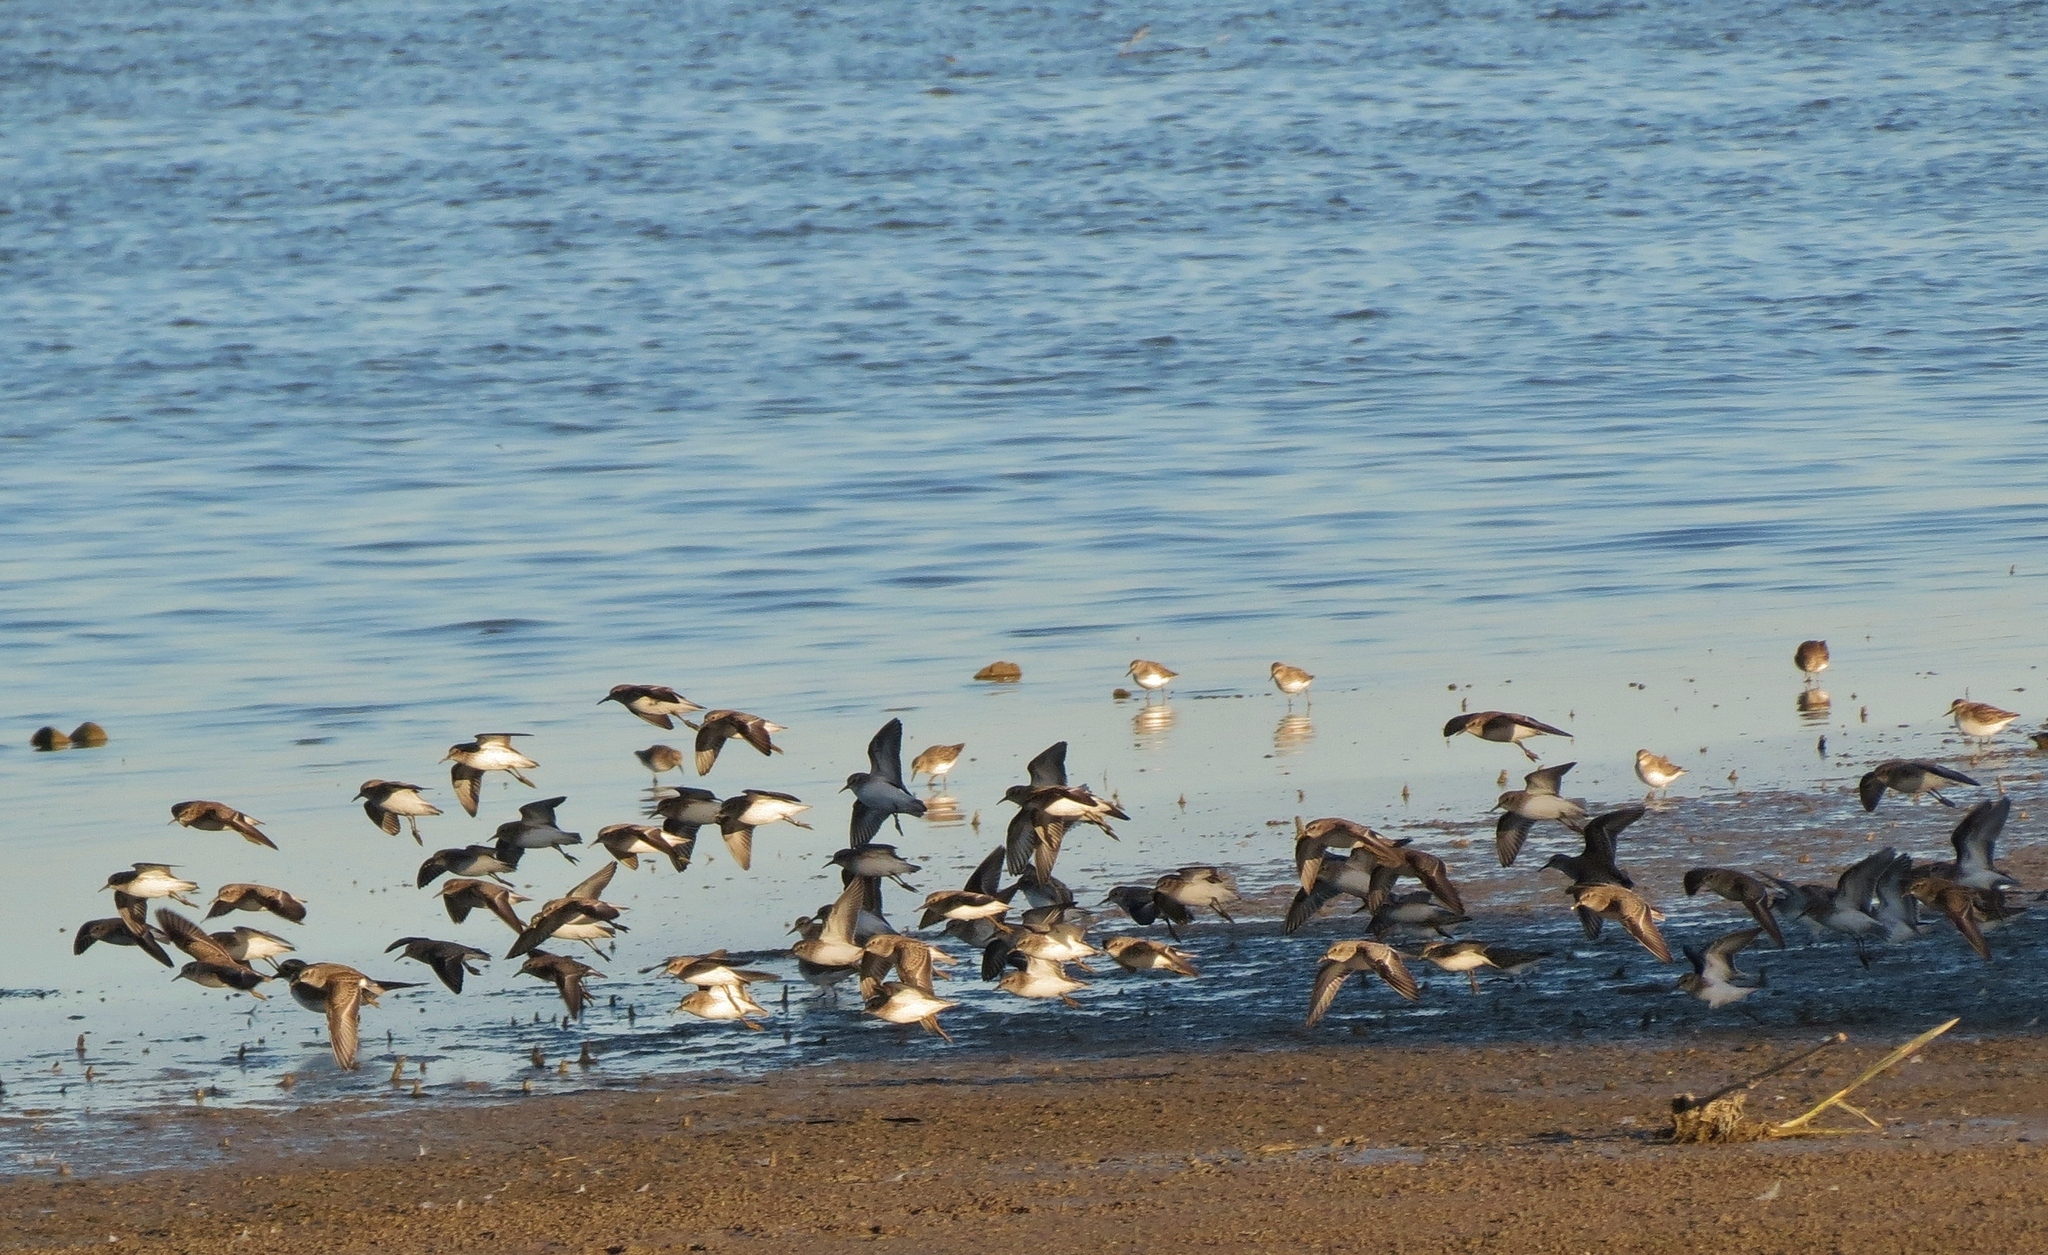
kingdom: Animalia
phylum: Chordata
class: Aves
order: Charadriiformes
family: Scolopacidae
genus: Calidris
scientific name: Calidris minutilla
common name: Least sandpiper
